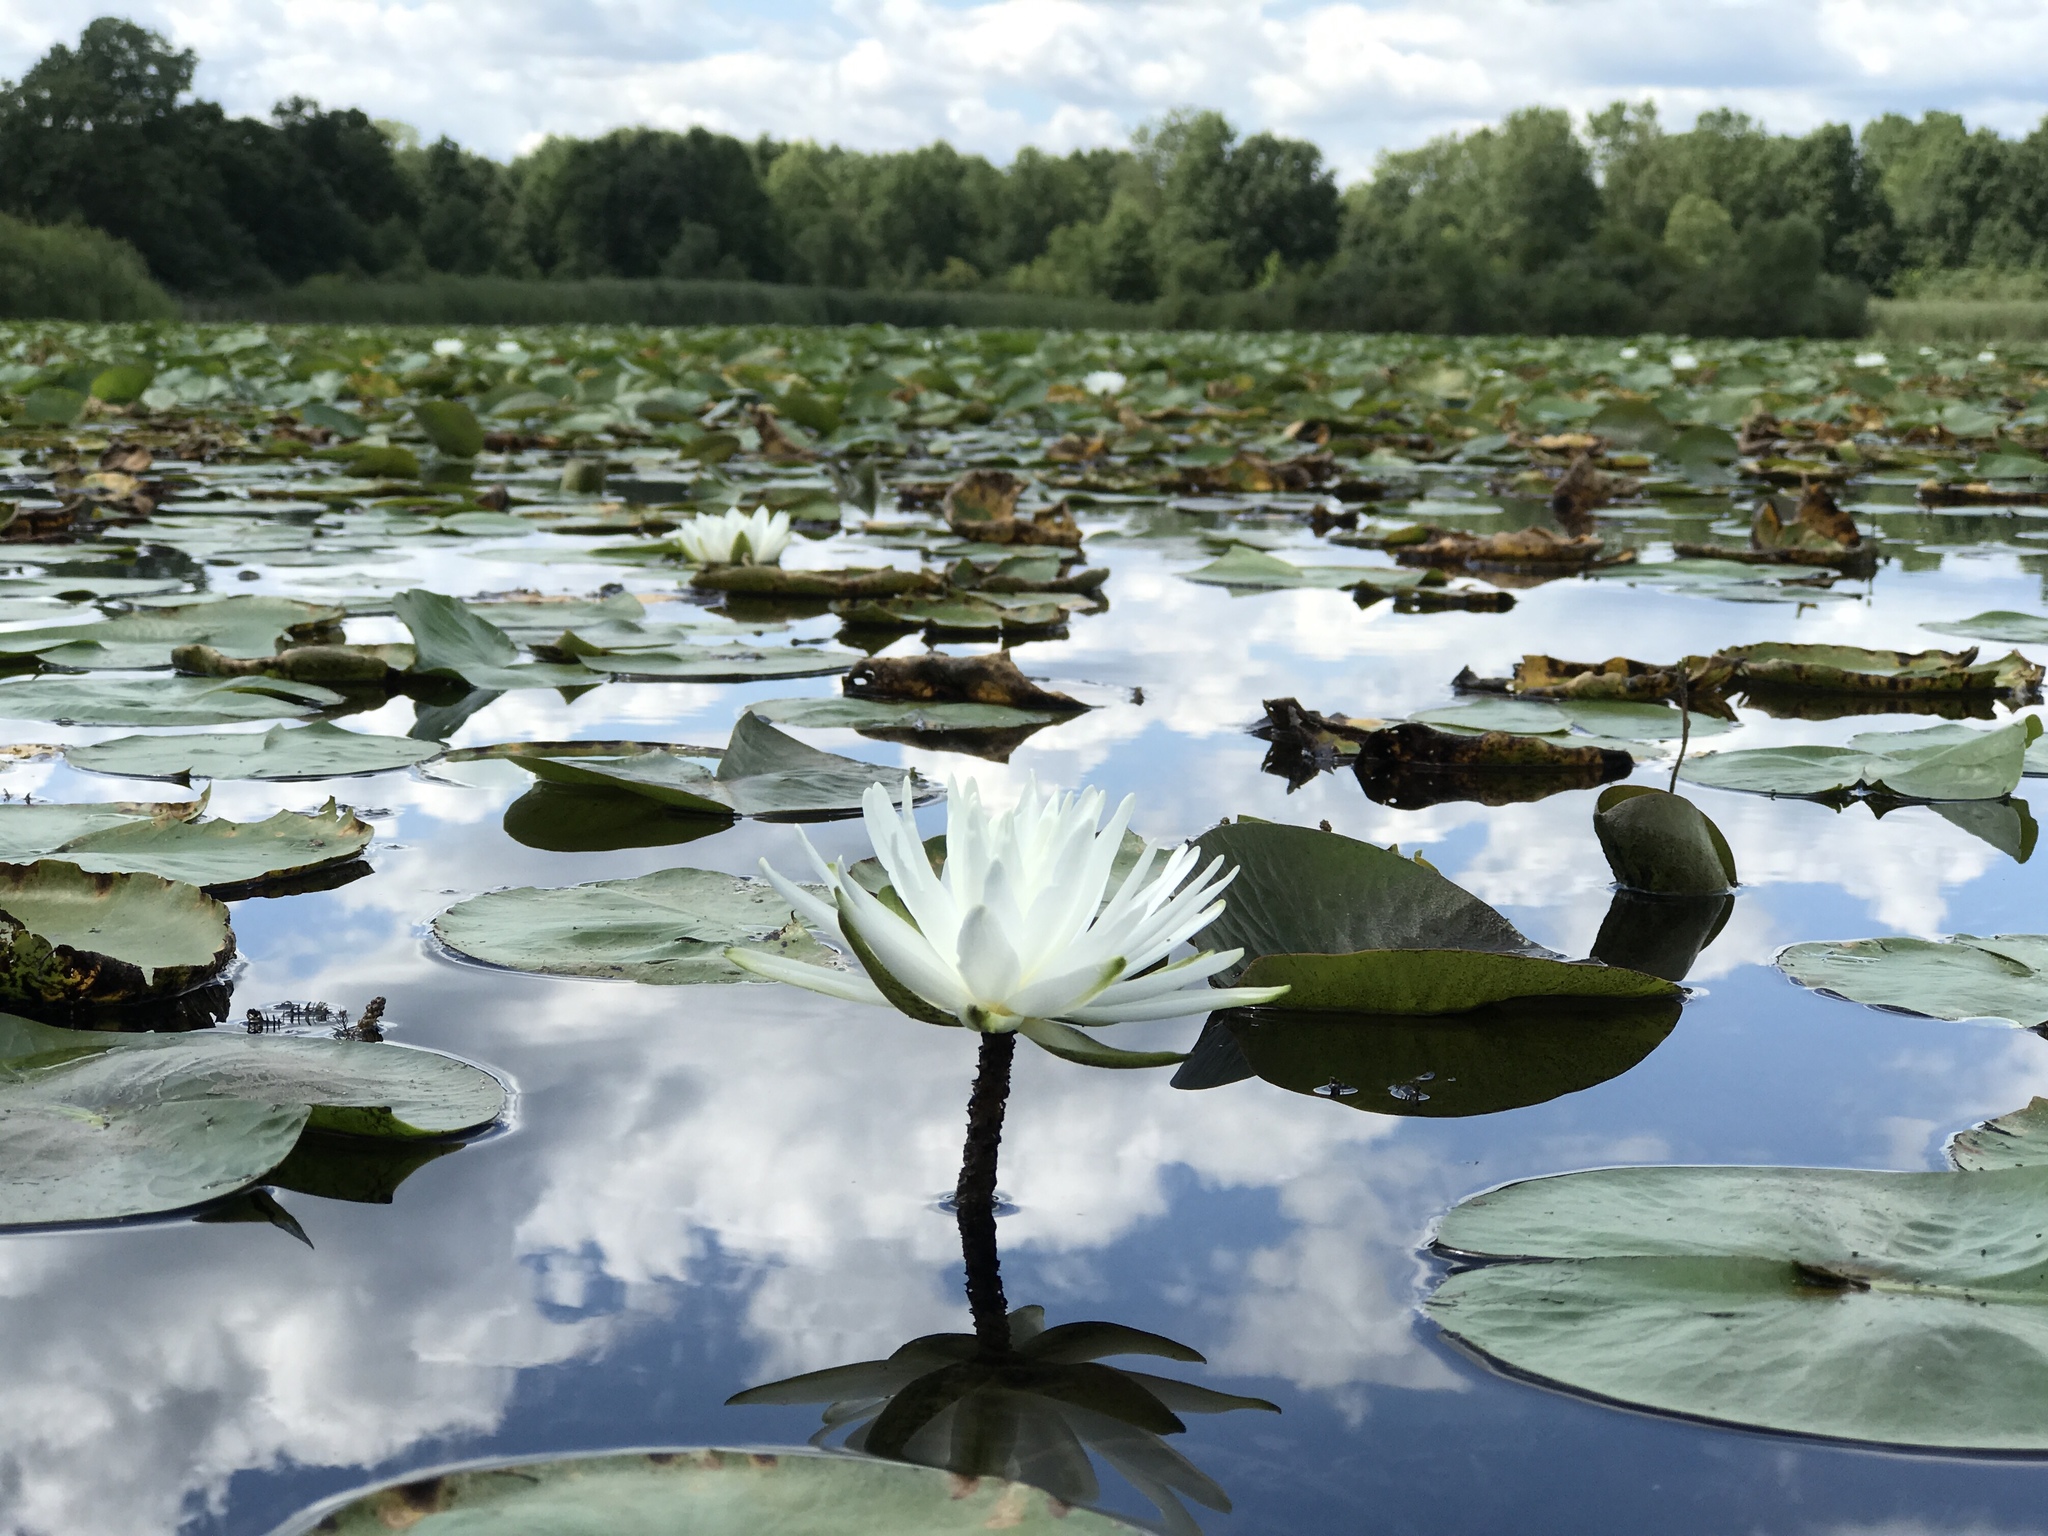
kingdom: Plantae
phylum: Tracheophyta
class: Magnoliopsida
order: Nymphaeales
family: Nymphaeaceae
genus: Nymphaea
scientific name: Nymphaea odorata
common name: Fragrant water-lily
